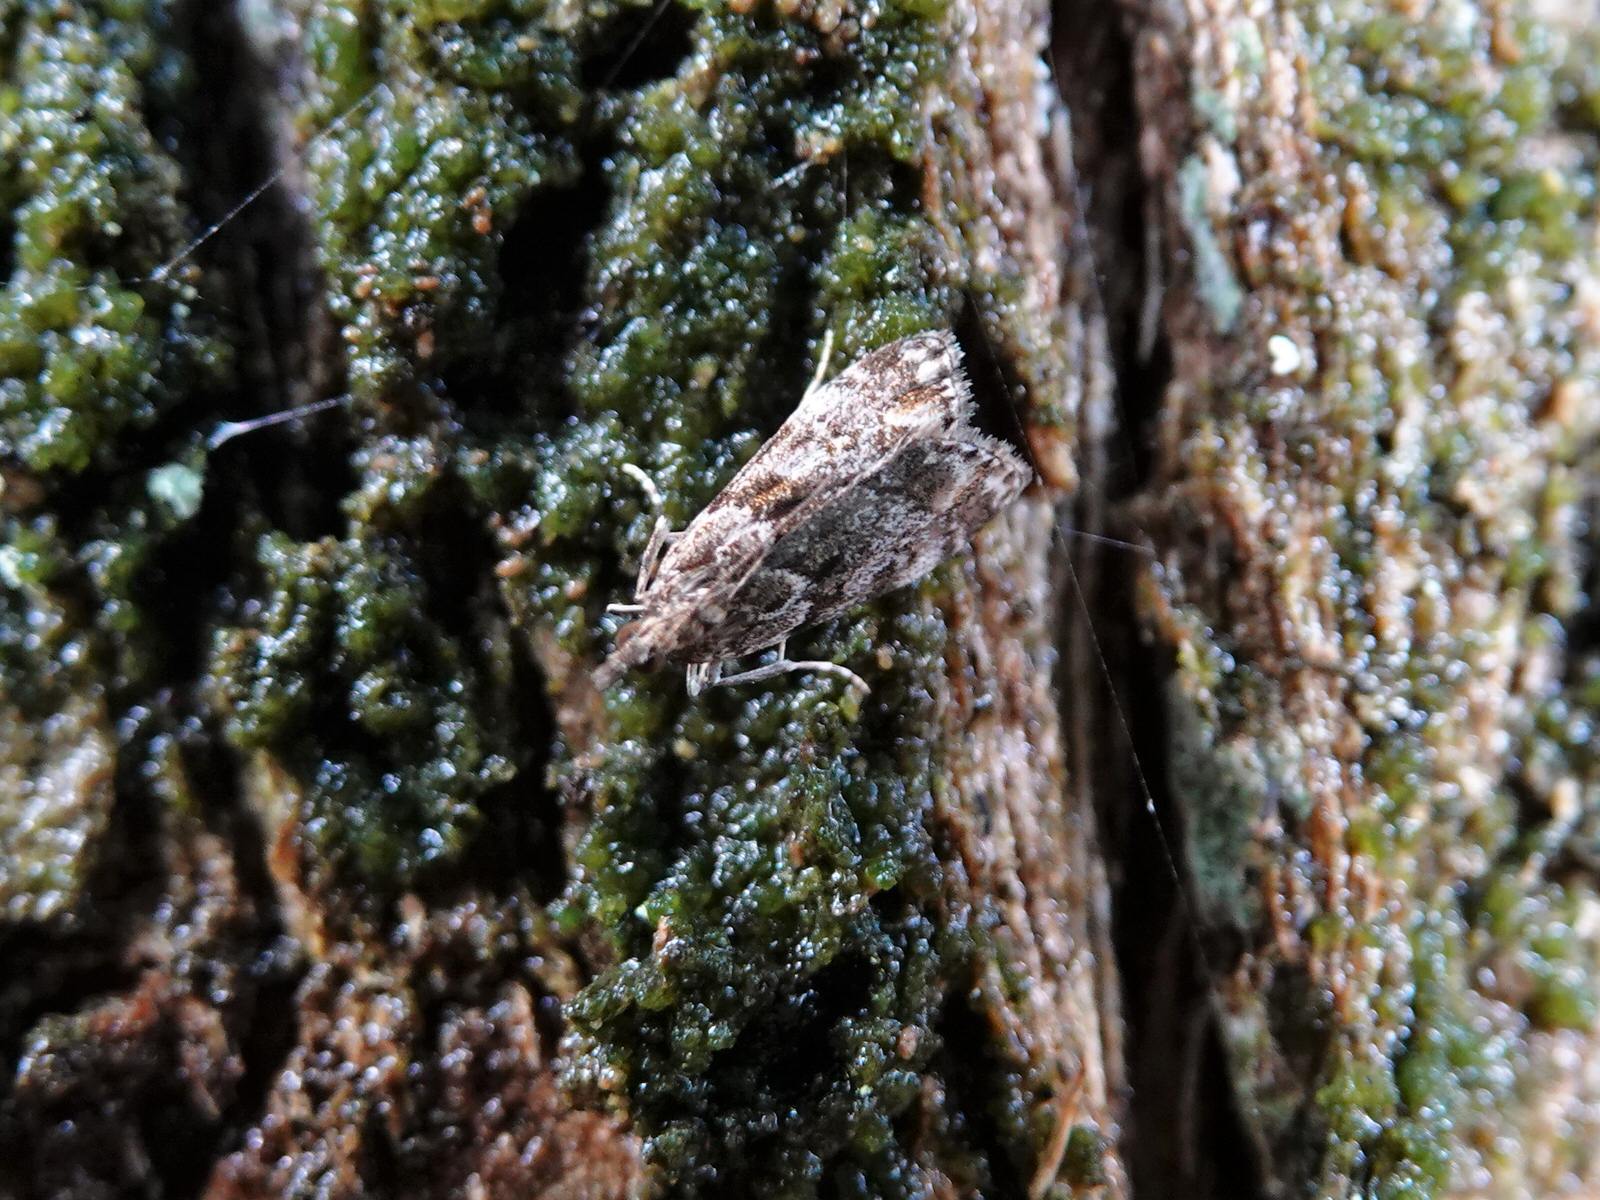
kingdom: Animalia
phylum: Arthropoda
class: Insecta
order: Lepidoptera
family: Crambidae
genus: Eudonia
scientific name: Eudonia minualis
